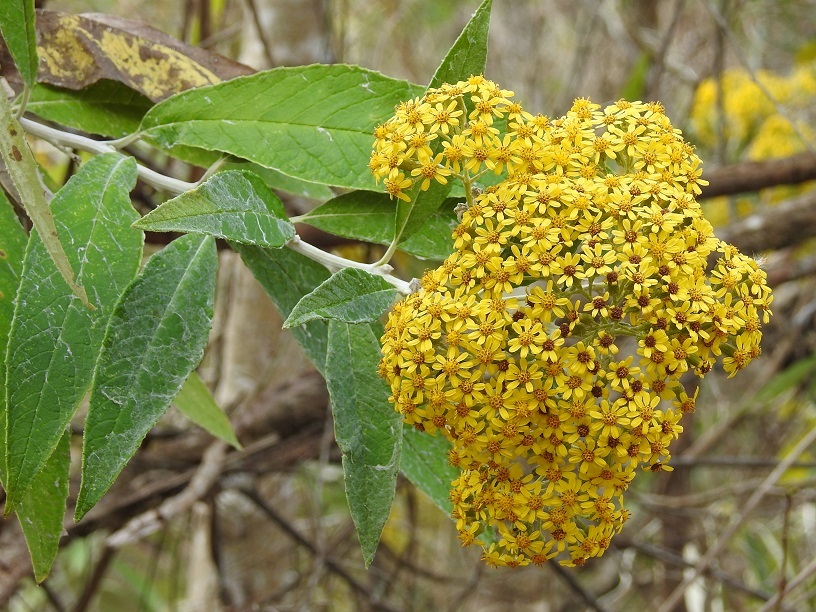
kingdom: Plantae
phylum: Tracheophyta
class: Magnoliopsida
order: Asterales
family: Asteraceae
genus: Zemisia
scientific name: Zemisia thomasii
